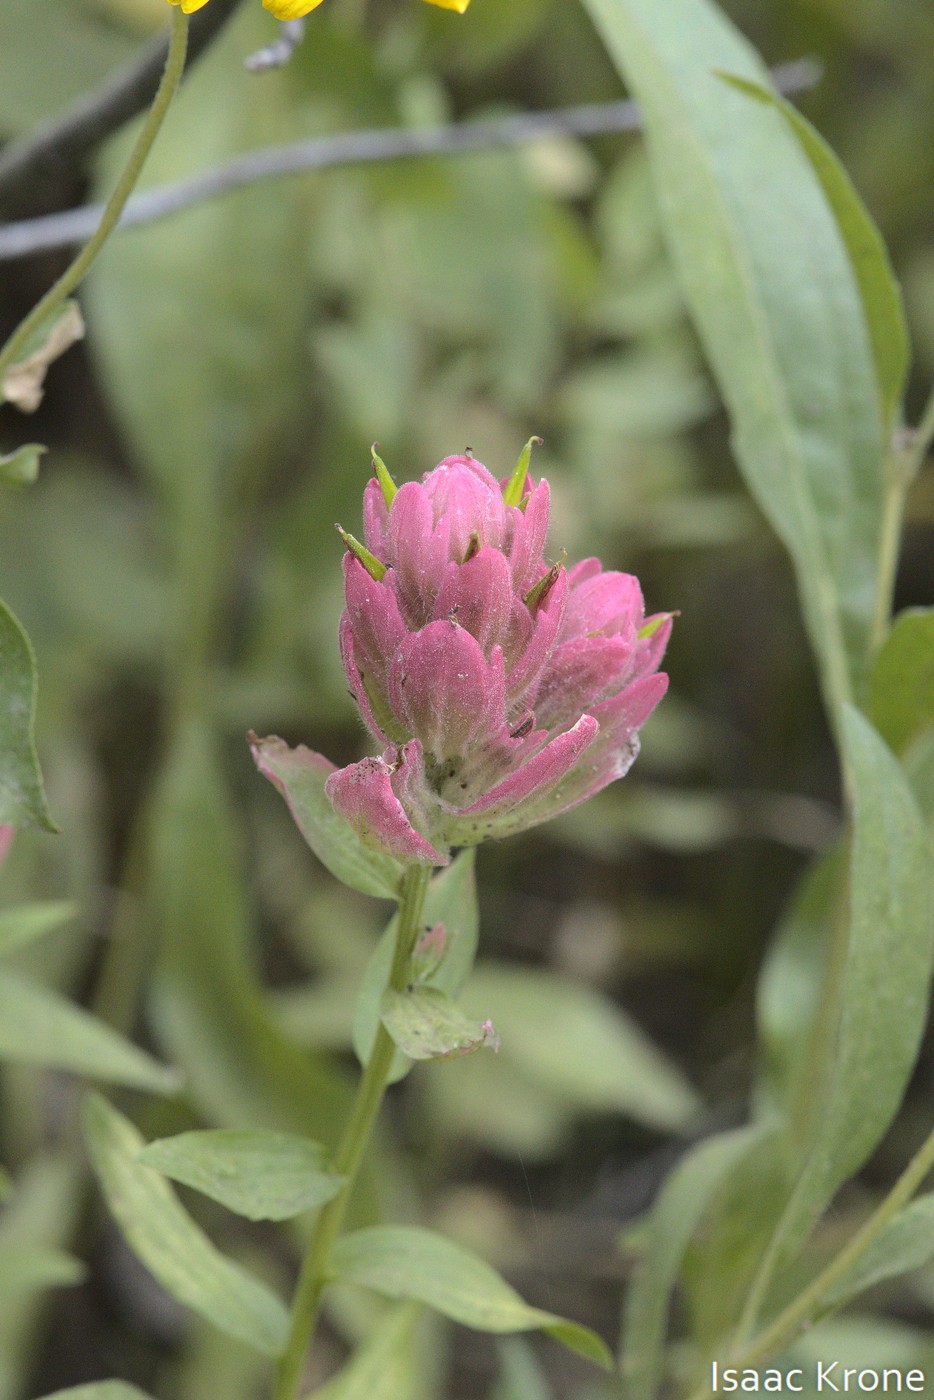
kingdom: Plantae
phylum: Tracheophyta
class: Magnoliopsida
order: Lamiales
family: Orobanchaceae
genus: Castilleja
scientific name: Castilleja rhexifolia
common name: Rocky mountain paintbrush
